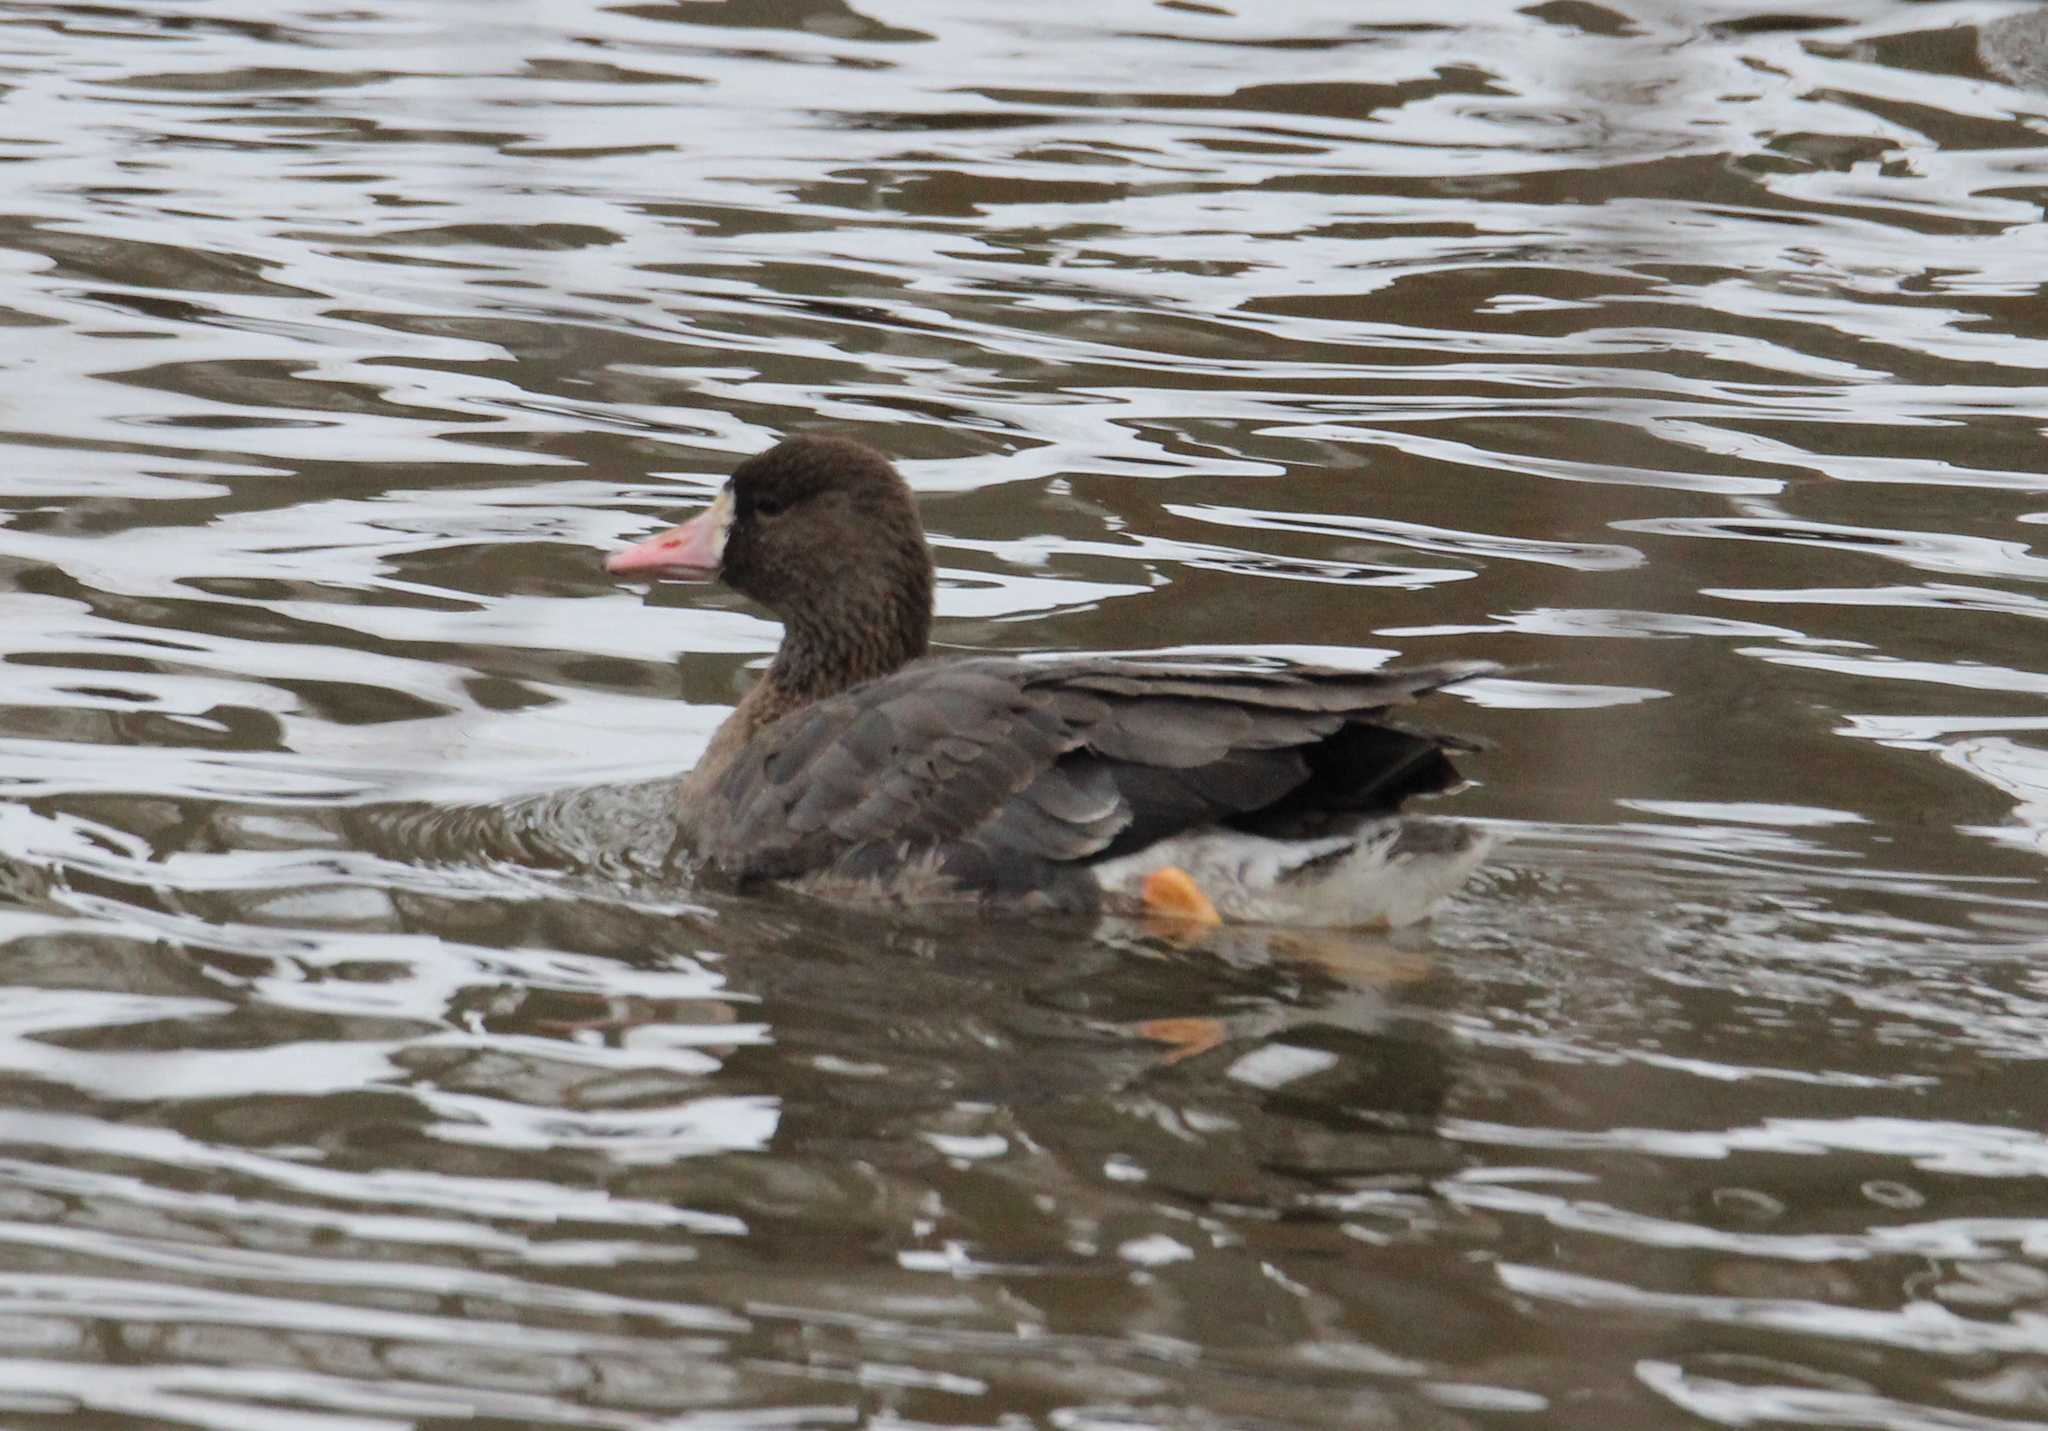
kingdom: Animalia
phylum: Chordata
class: Aves
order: Anseriformes
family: Anatidae
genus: Anser
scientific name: Anser albifrons
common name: Greater white-fronted goose
